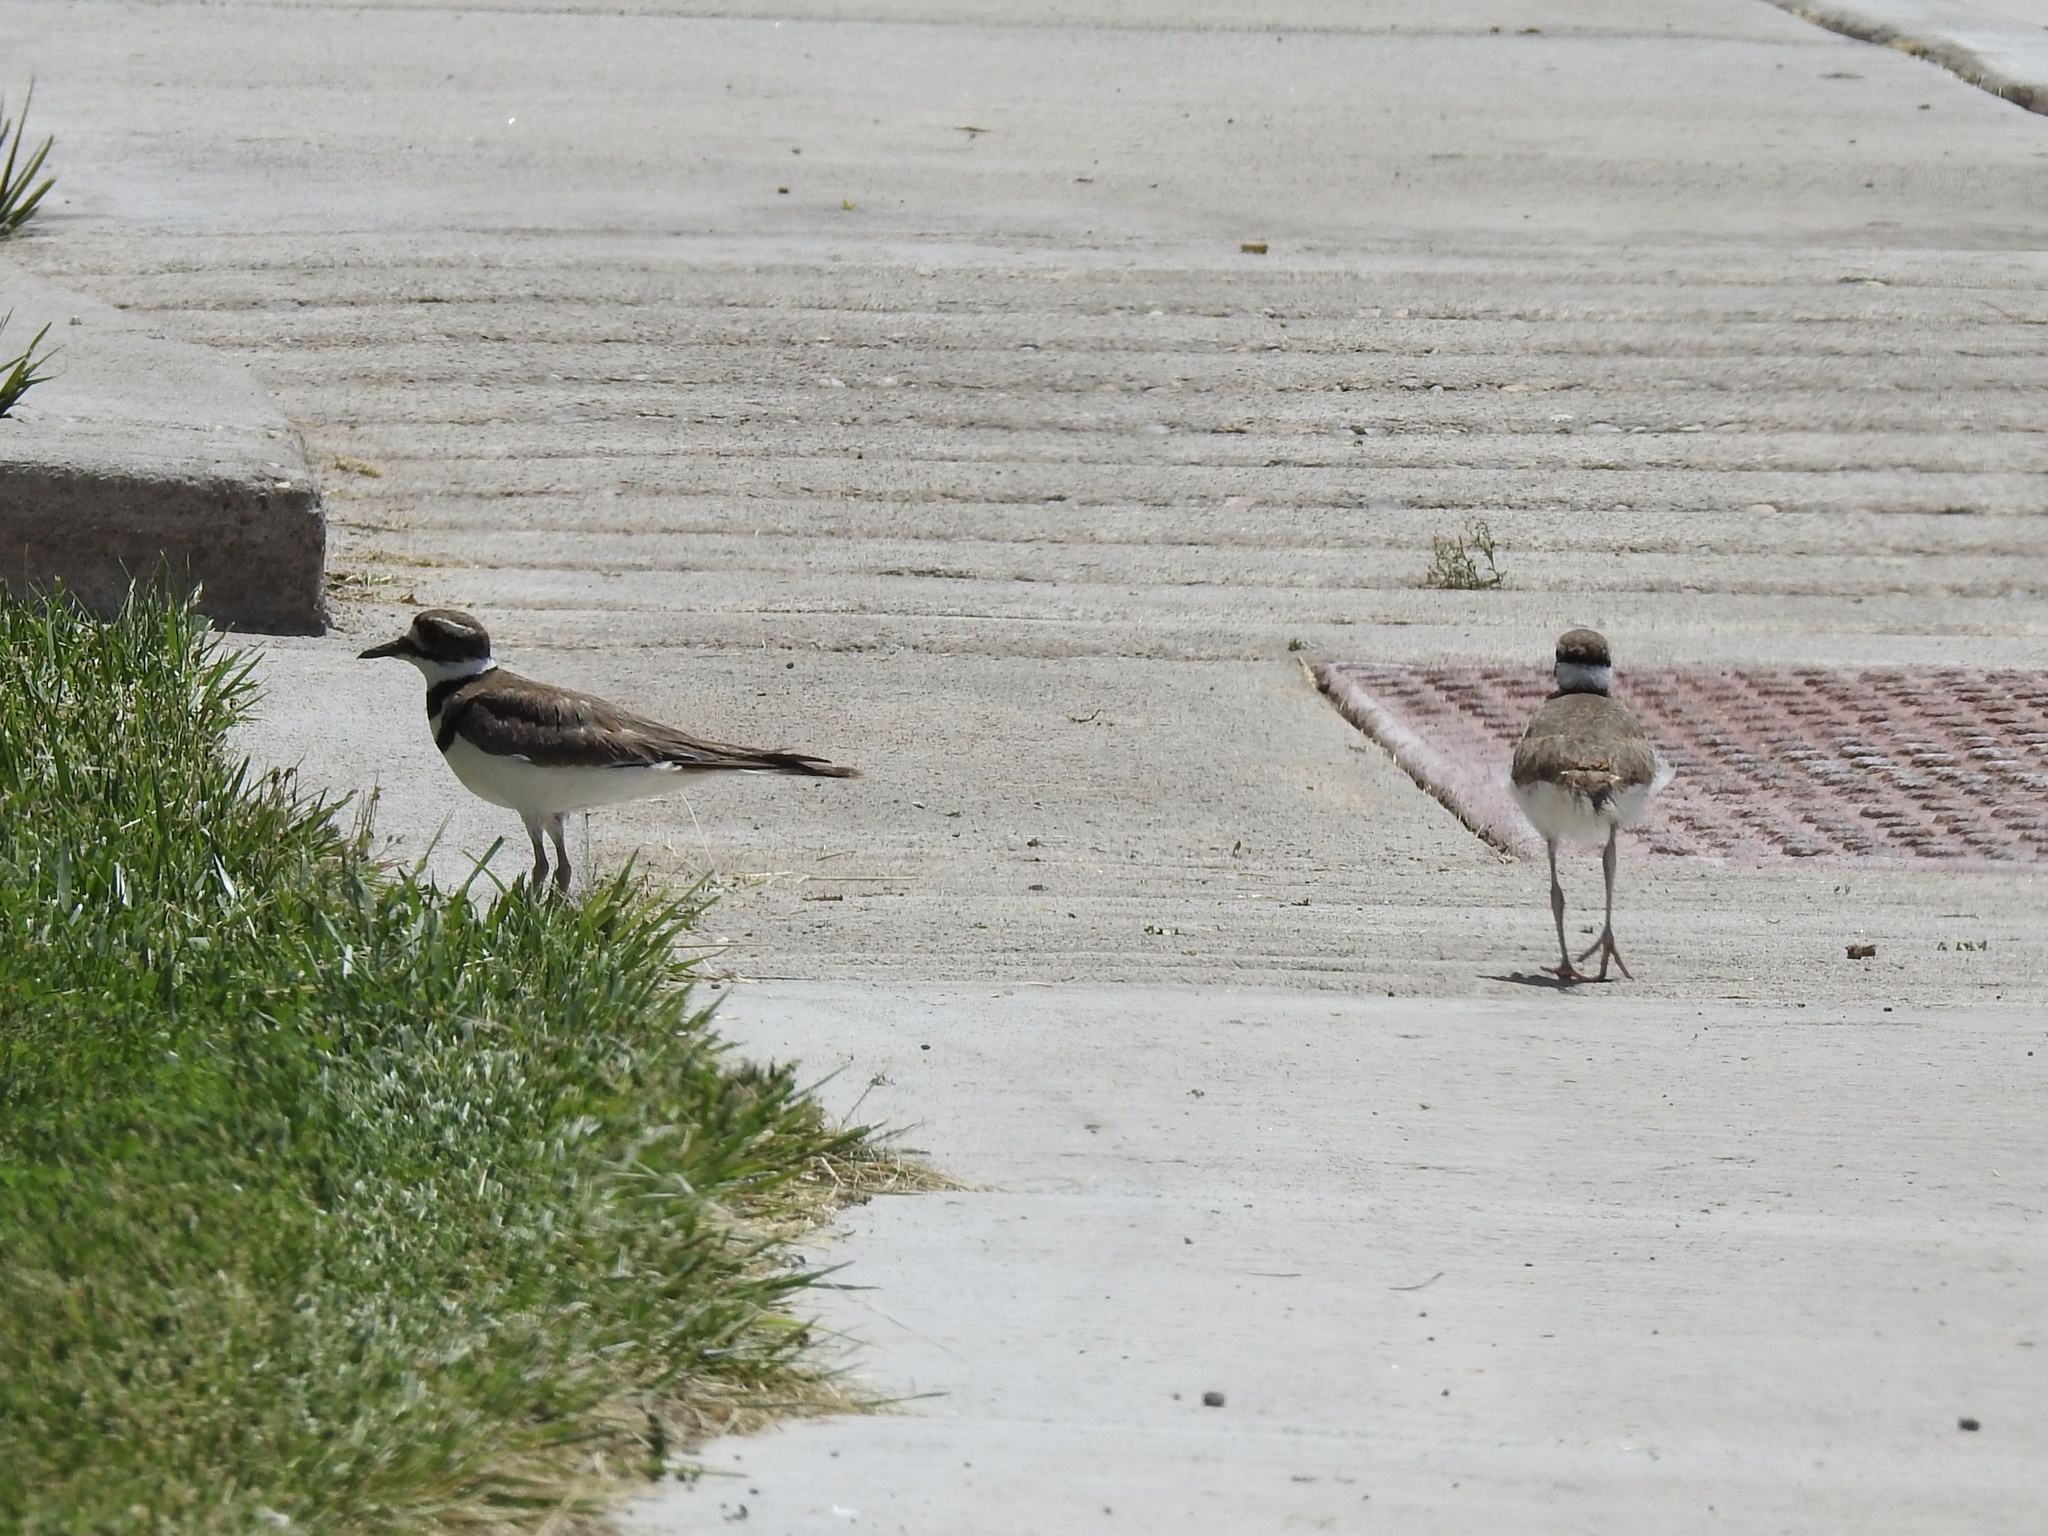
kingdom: Animalia
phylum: Chordata
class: Aves
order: Charadriiformes
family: Charadriidae
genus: Charadrius
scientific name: Charadrius vociferus
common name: Killdeer
